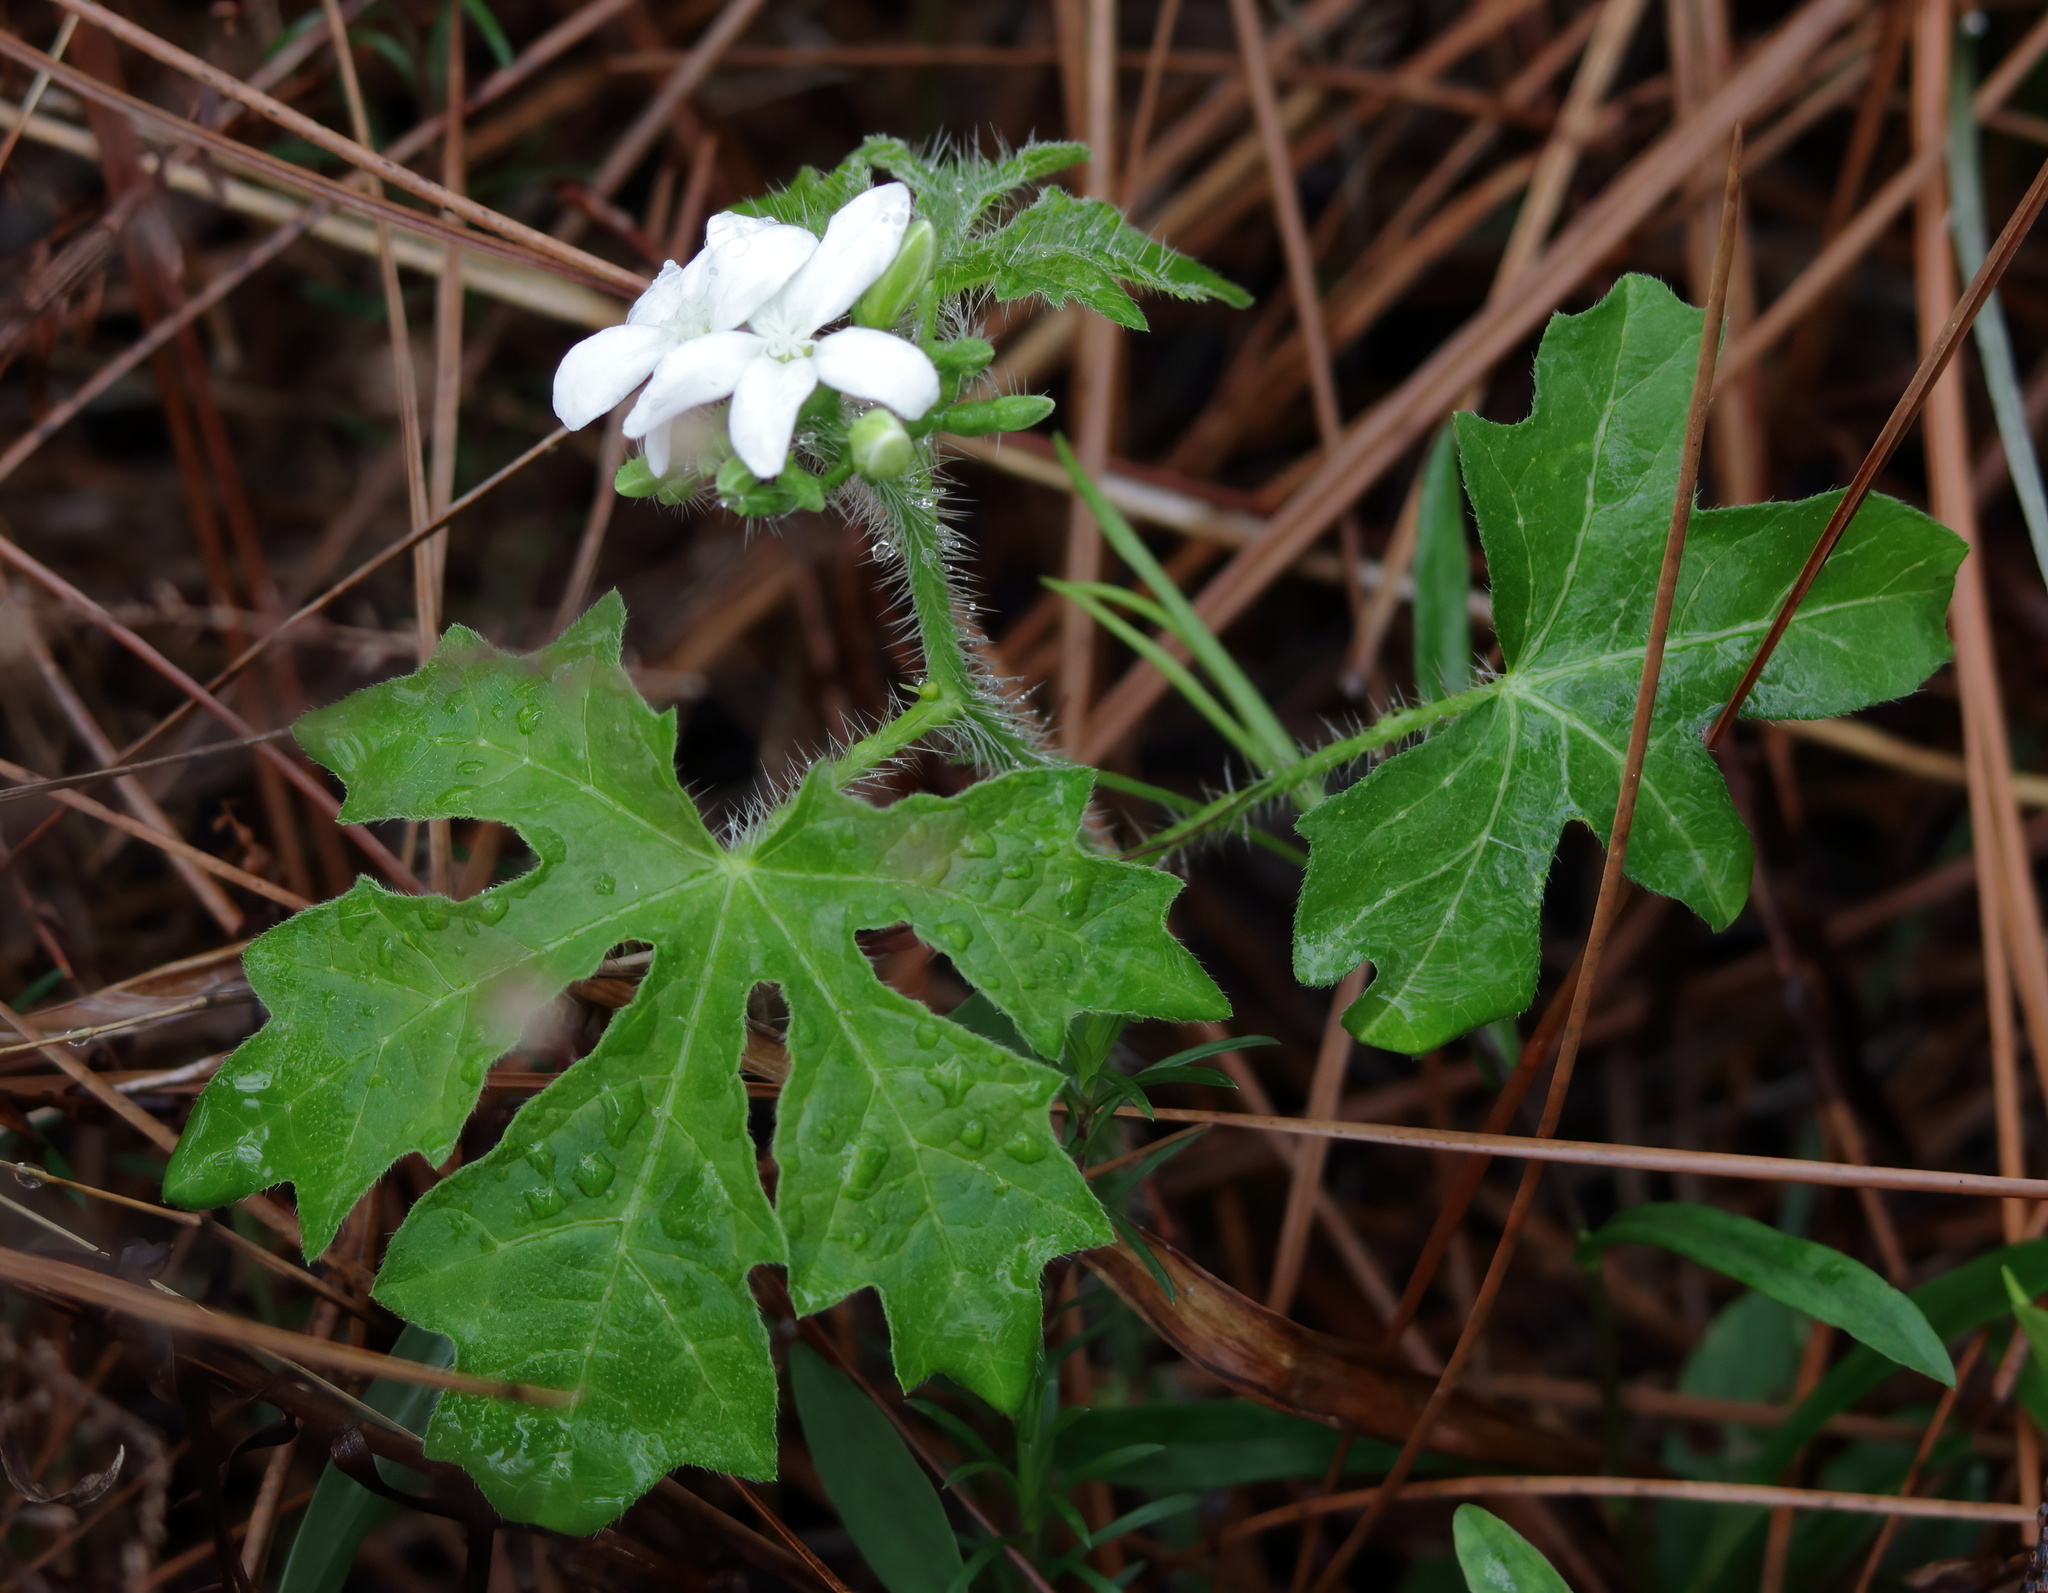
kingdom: Plantae
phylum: Tracheophyta
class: Magnoliopsida
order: Malpighiales
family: Euphorbiaceae
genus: Cnidoscolus
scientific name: Cnidoscolus stimulosus
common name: Bull-nettle
